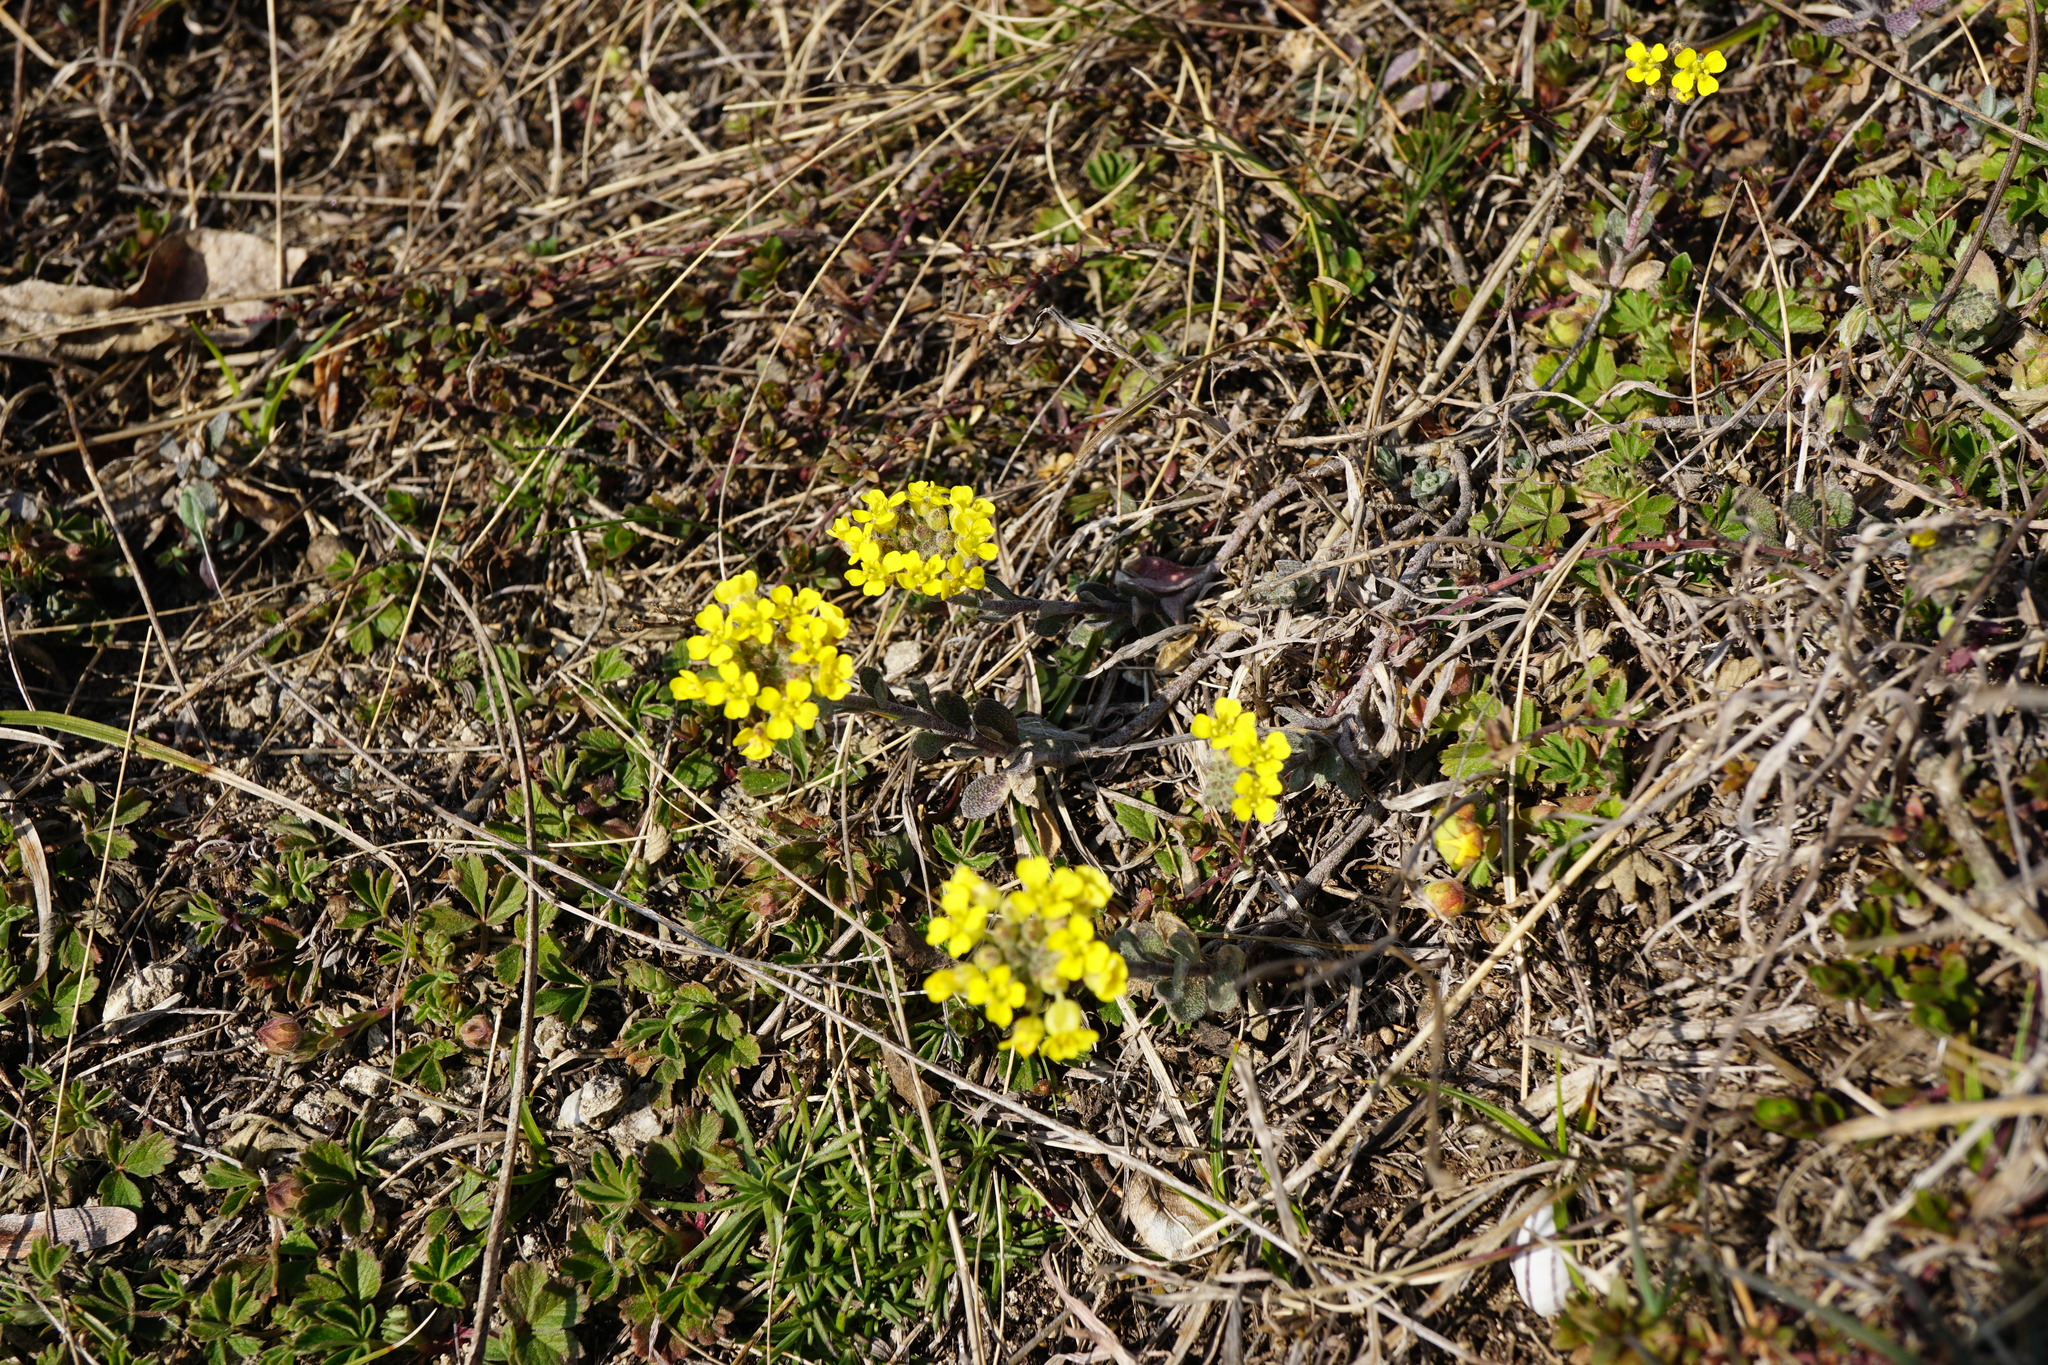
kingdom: Plantae
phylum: Tracheophyta
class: Magnoliopsida
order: Brassicales
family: Brassicaceae
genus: Alyssum
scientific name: Alyssum gmelinii
